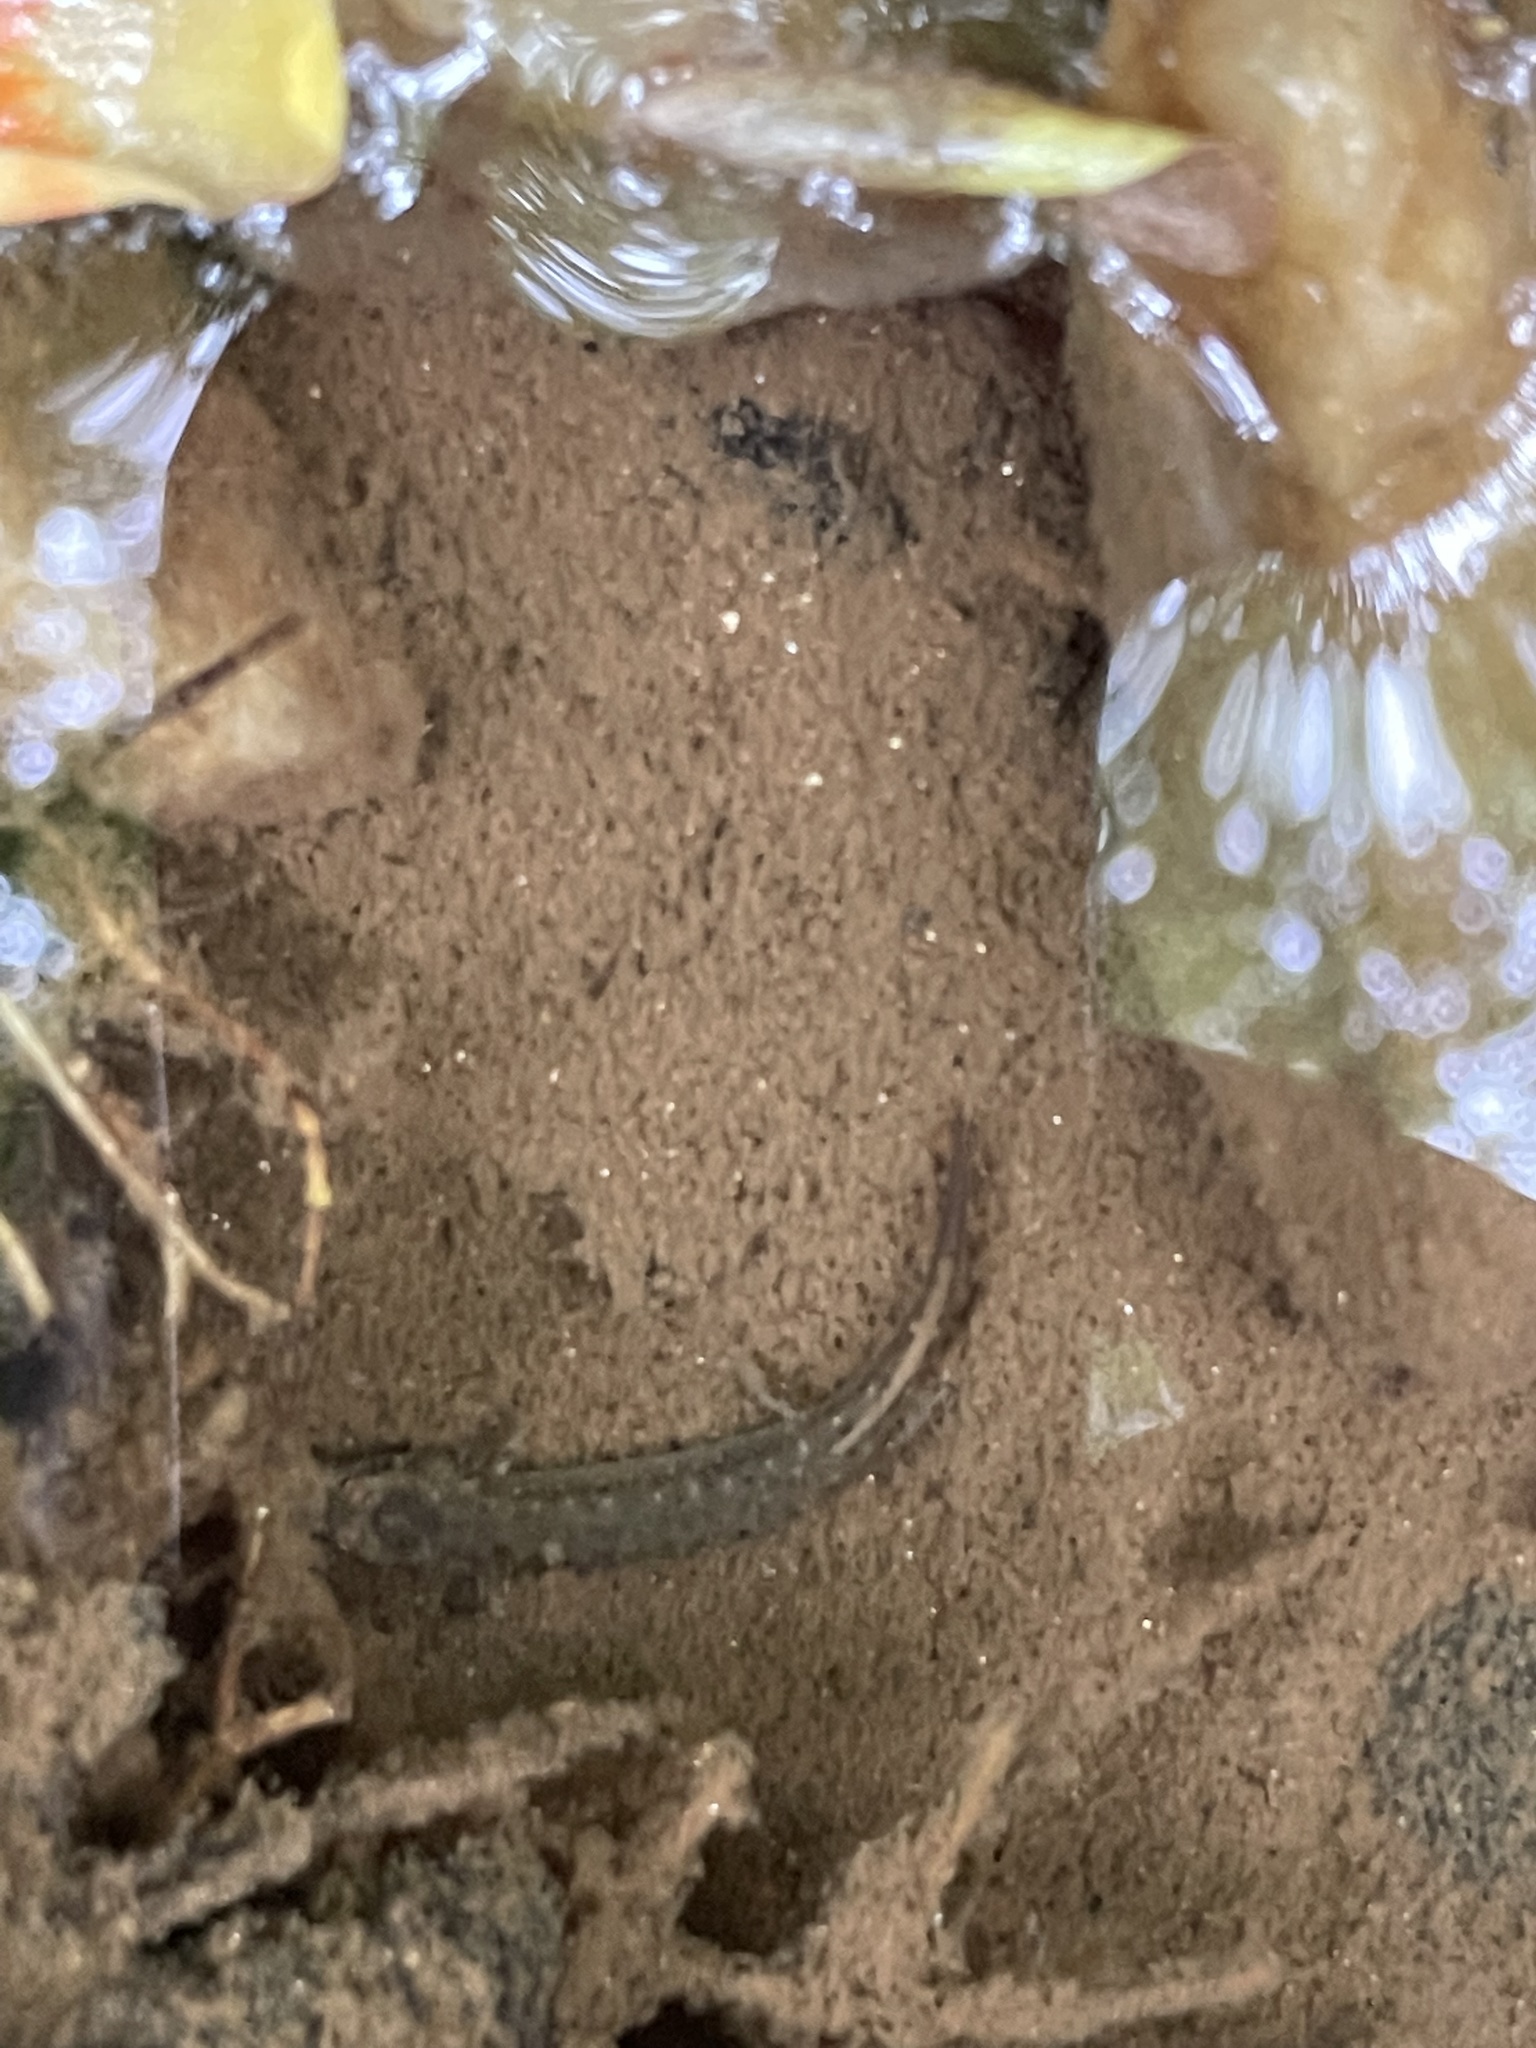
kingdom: Animalia
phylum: Chordata
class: Amphibia
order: Caudata
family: Plethodontidae
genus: Eurycea
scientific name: Eurycea cirrigera
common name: Southern two-lined salamander
